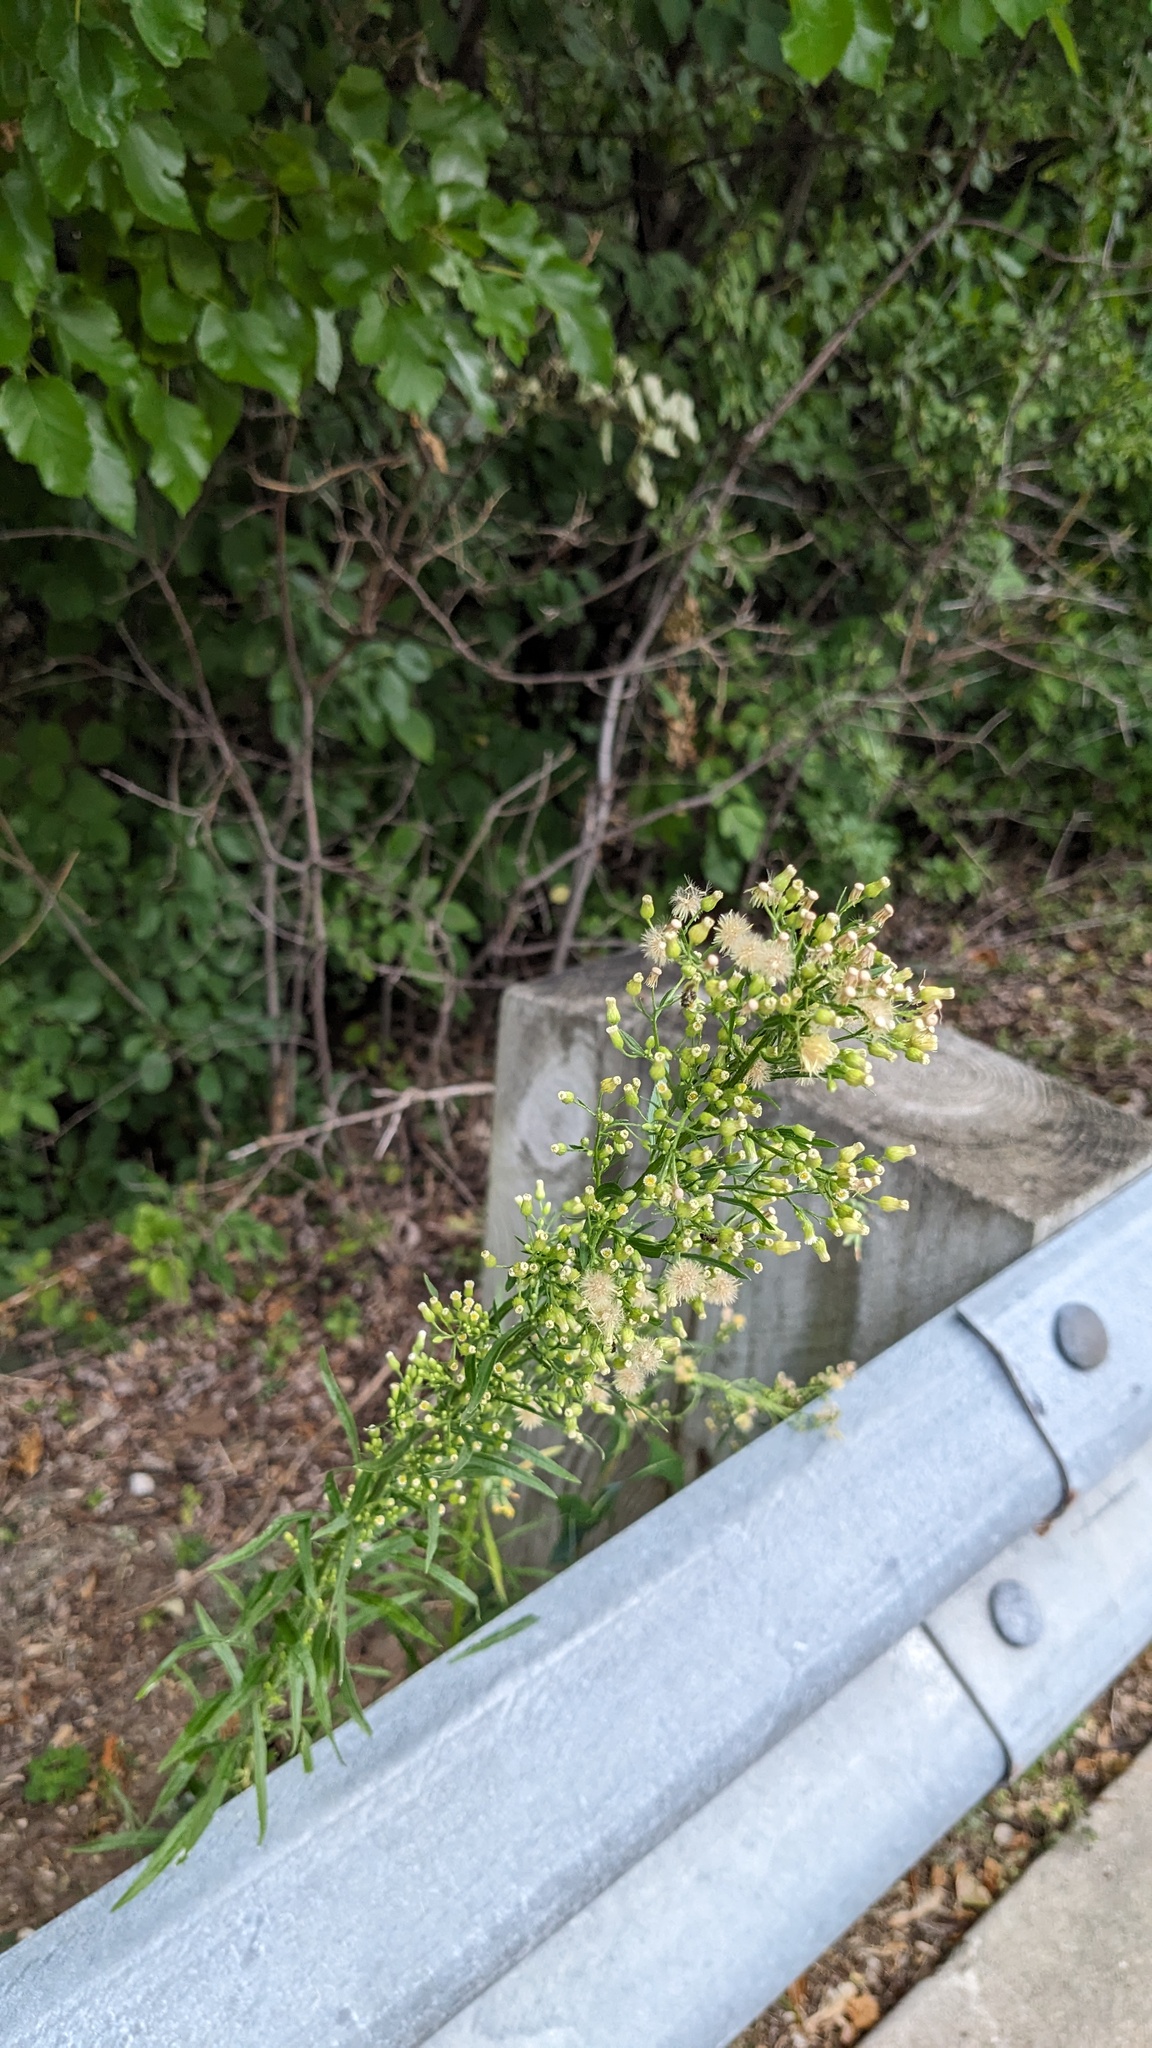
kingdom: Plantae
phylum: Tracheophyta
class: Magnoliopsida
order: Asterales
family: Asteraceae
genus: Erigeron
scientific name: Erigeron canadensis
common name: Canadian fleabane
